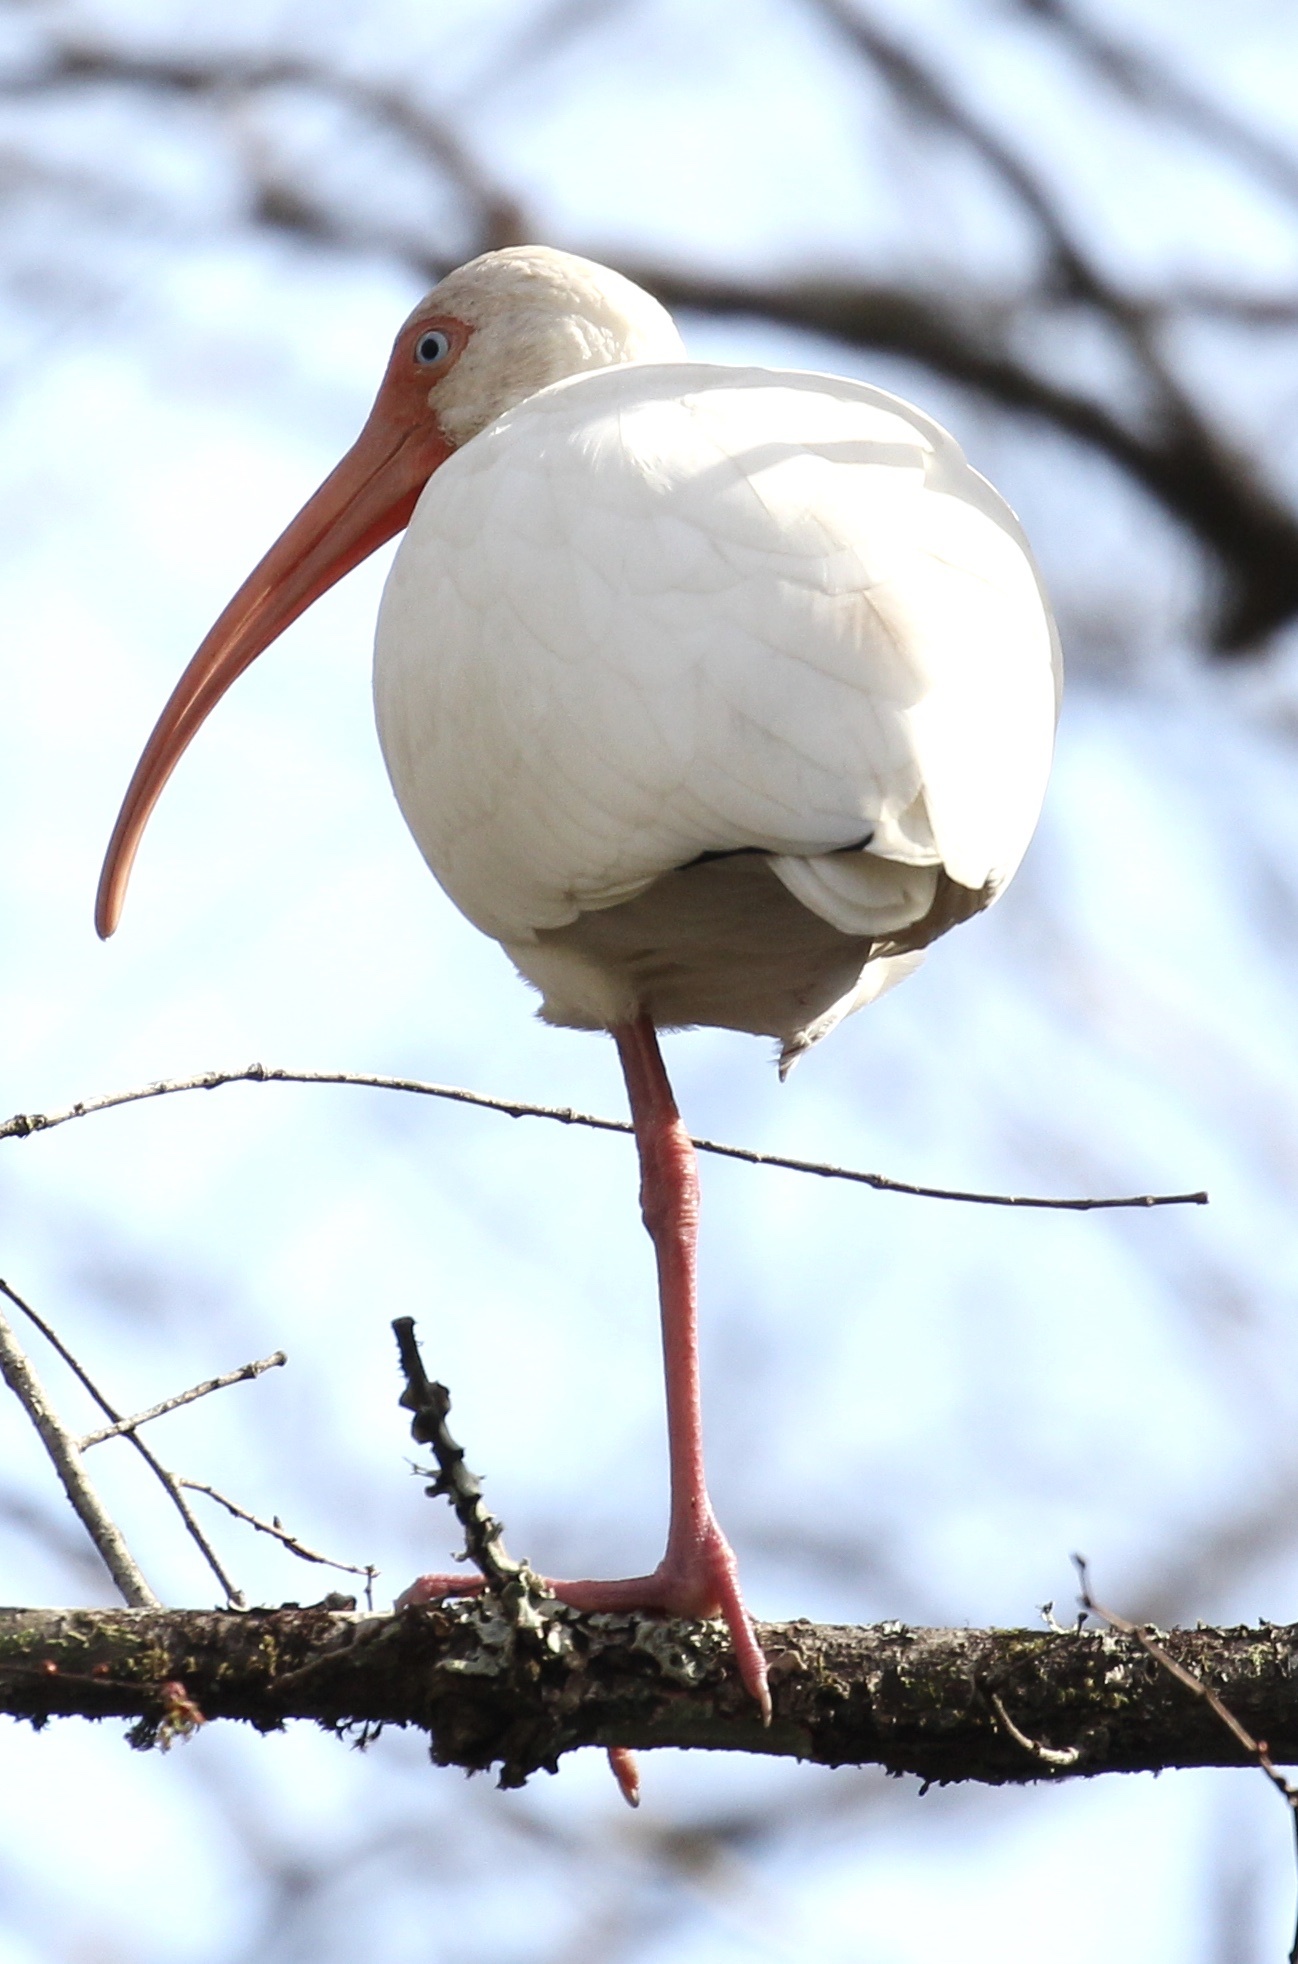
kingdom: Animalia
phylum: Chordata
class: Aves
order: Pelecaniformes
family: Threskiornithidae
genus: Eudocimus
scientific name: Eudocimus albus
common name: White ibis
